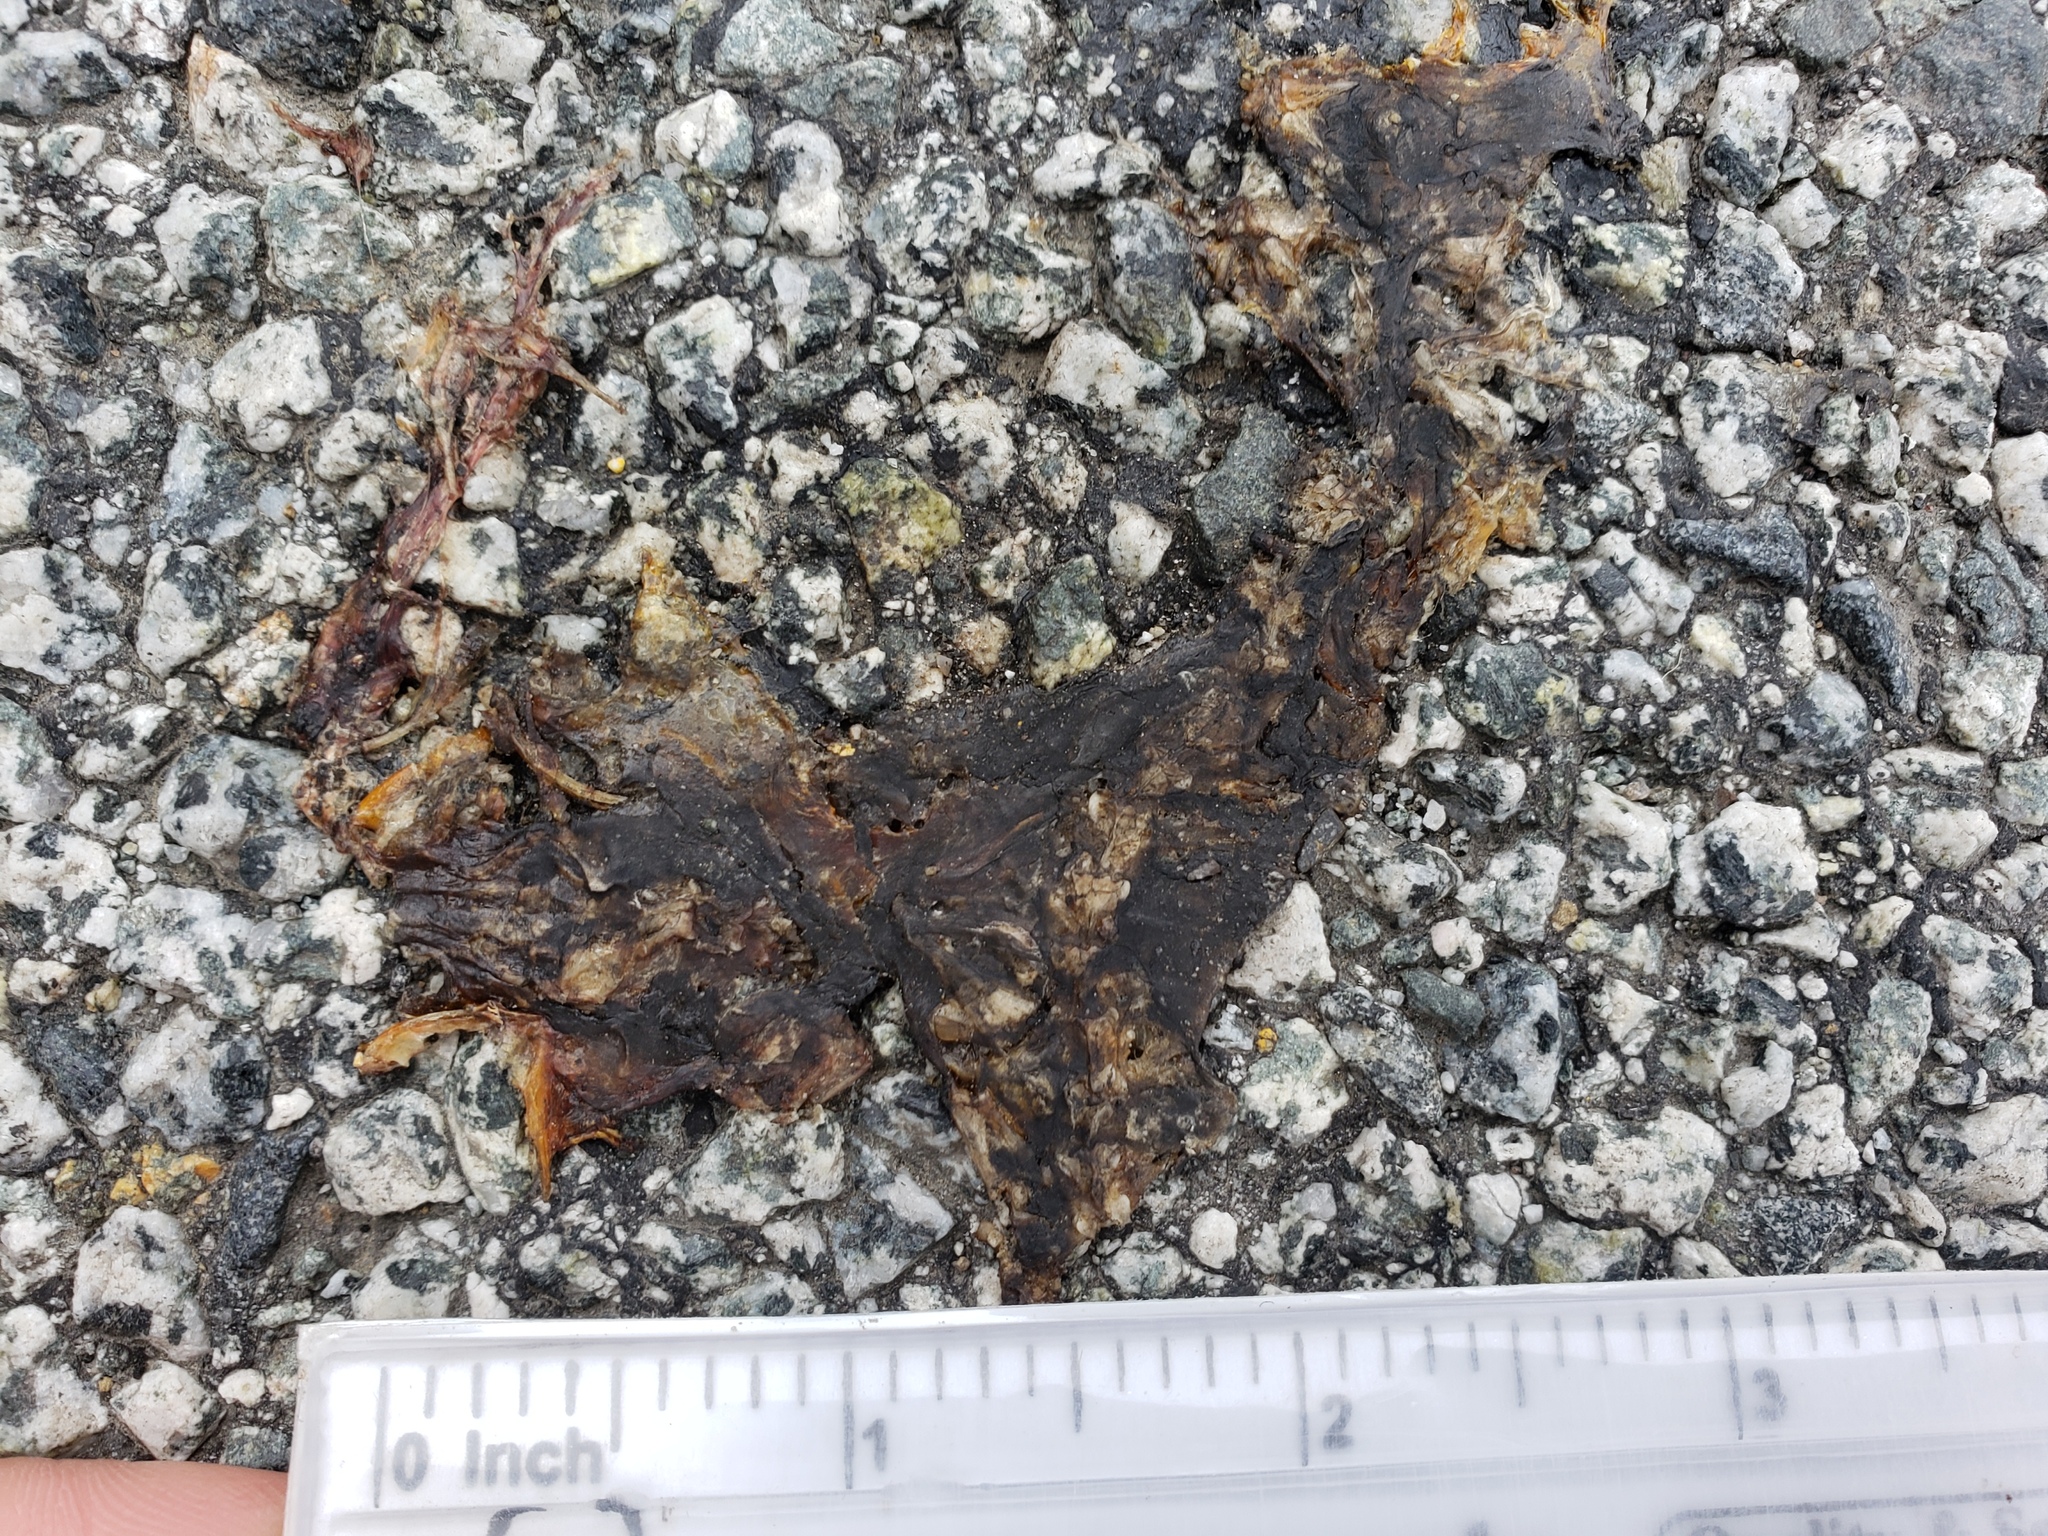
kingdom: Animalia
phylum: Chordata
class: Amphibia
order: Caudata
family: Salamandridae
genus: Taricha
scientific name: Taricha
